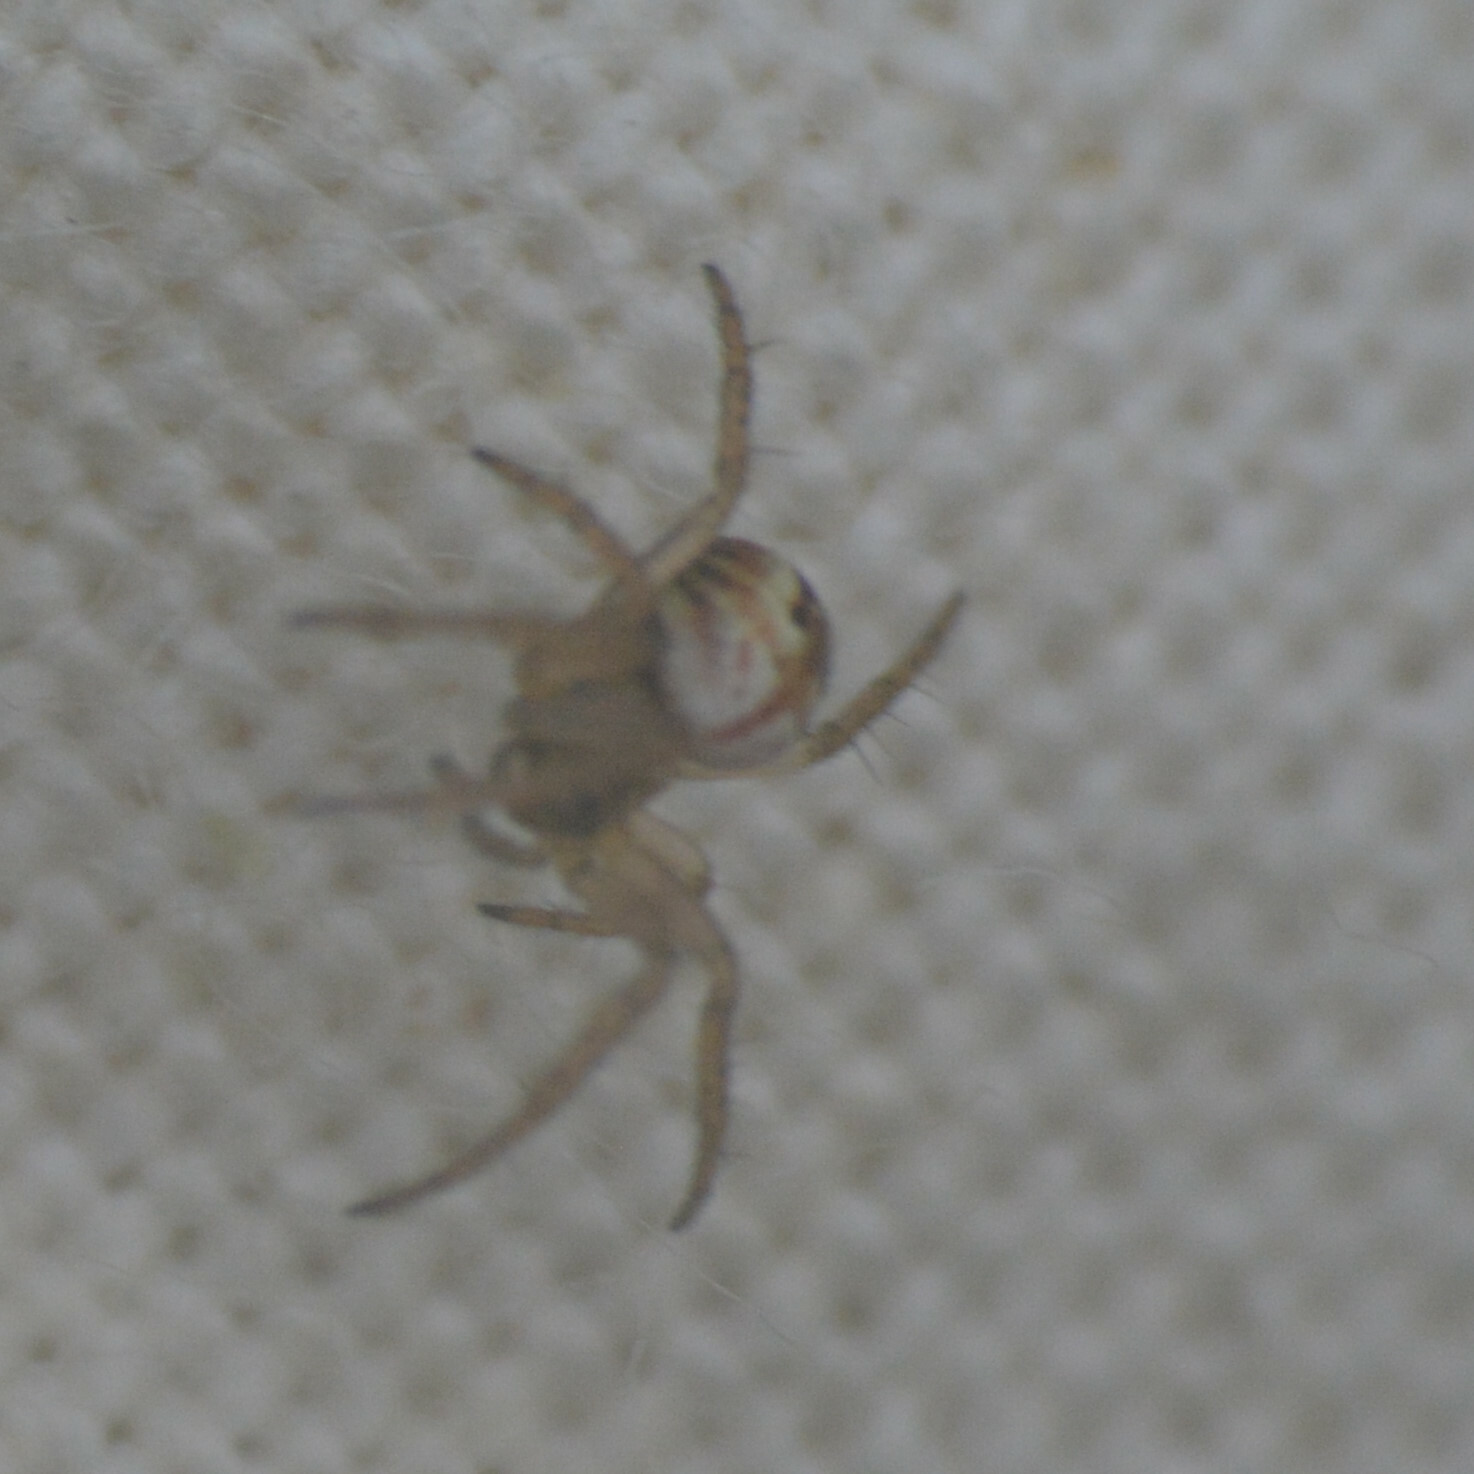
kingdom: Animalia
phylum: Arthropoda
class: Arachnida
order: Araneae
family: Araneidae
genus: Mangora
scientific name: Mangora acalypha
